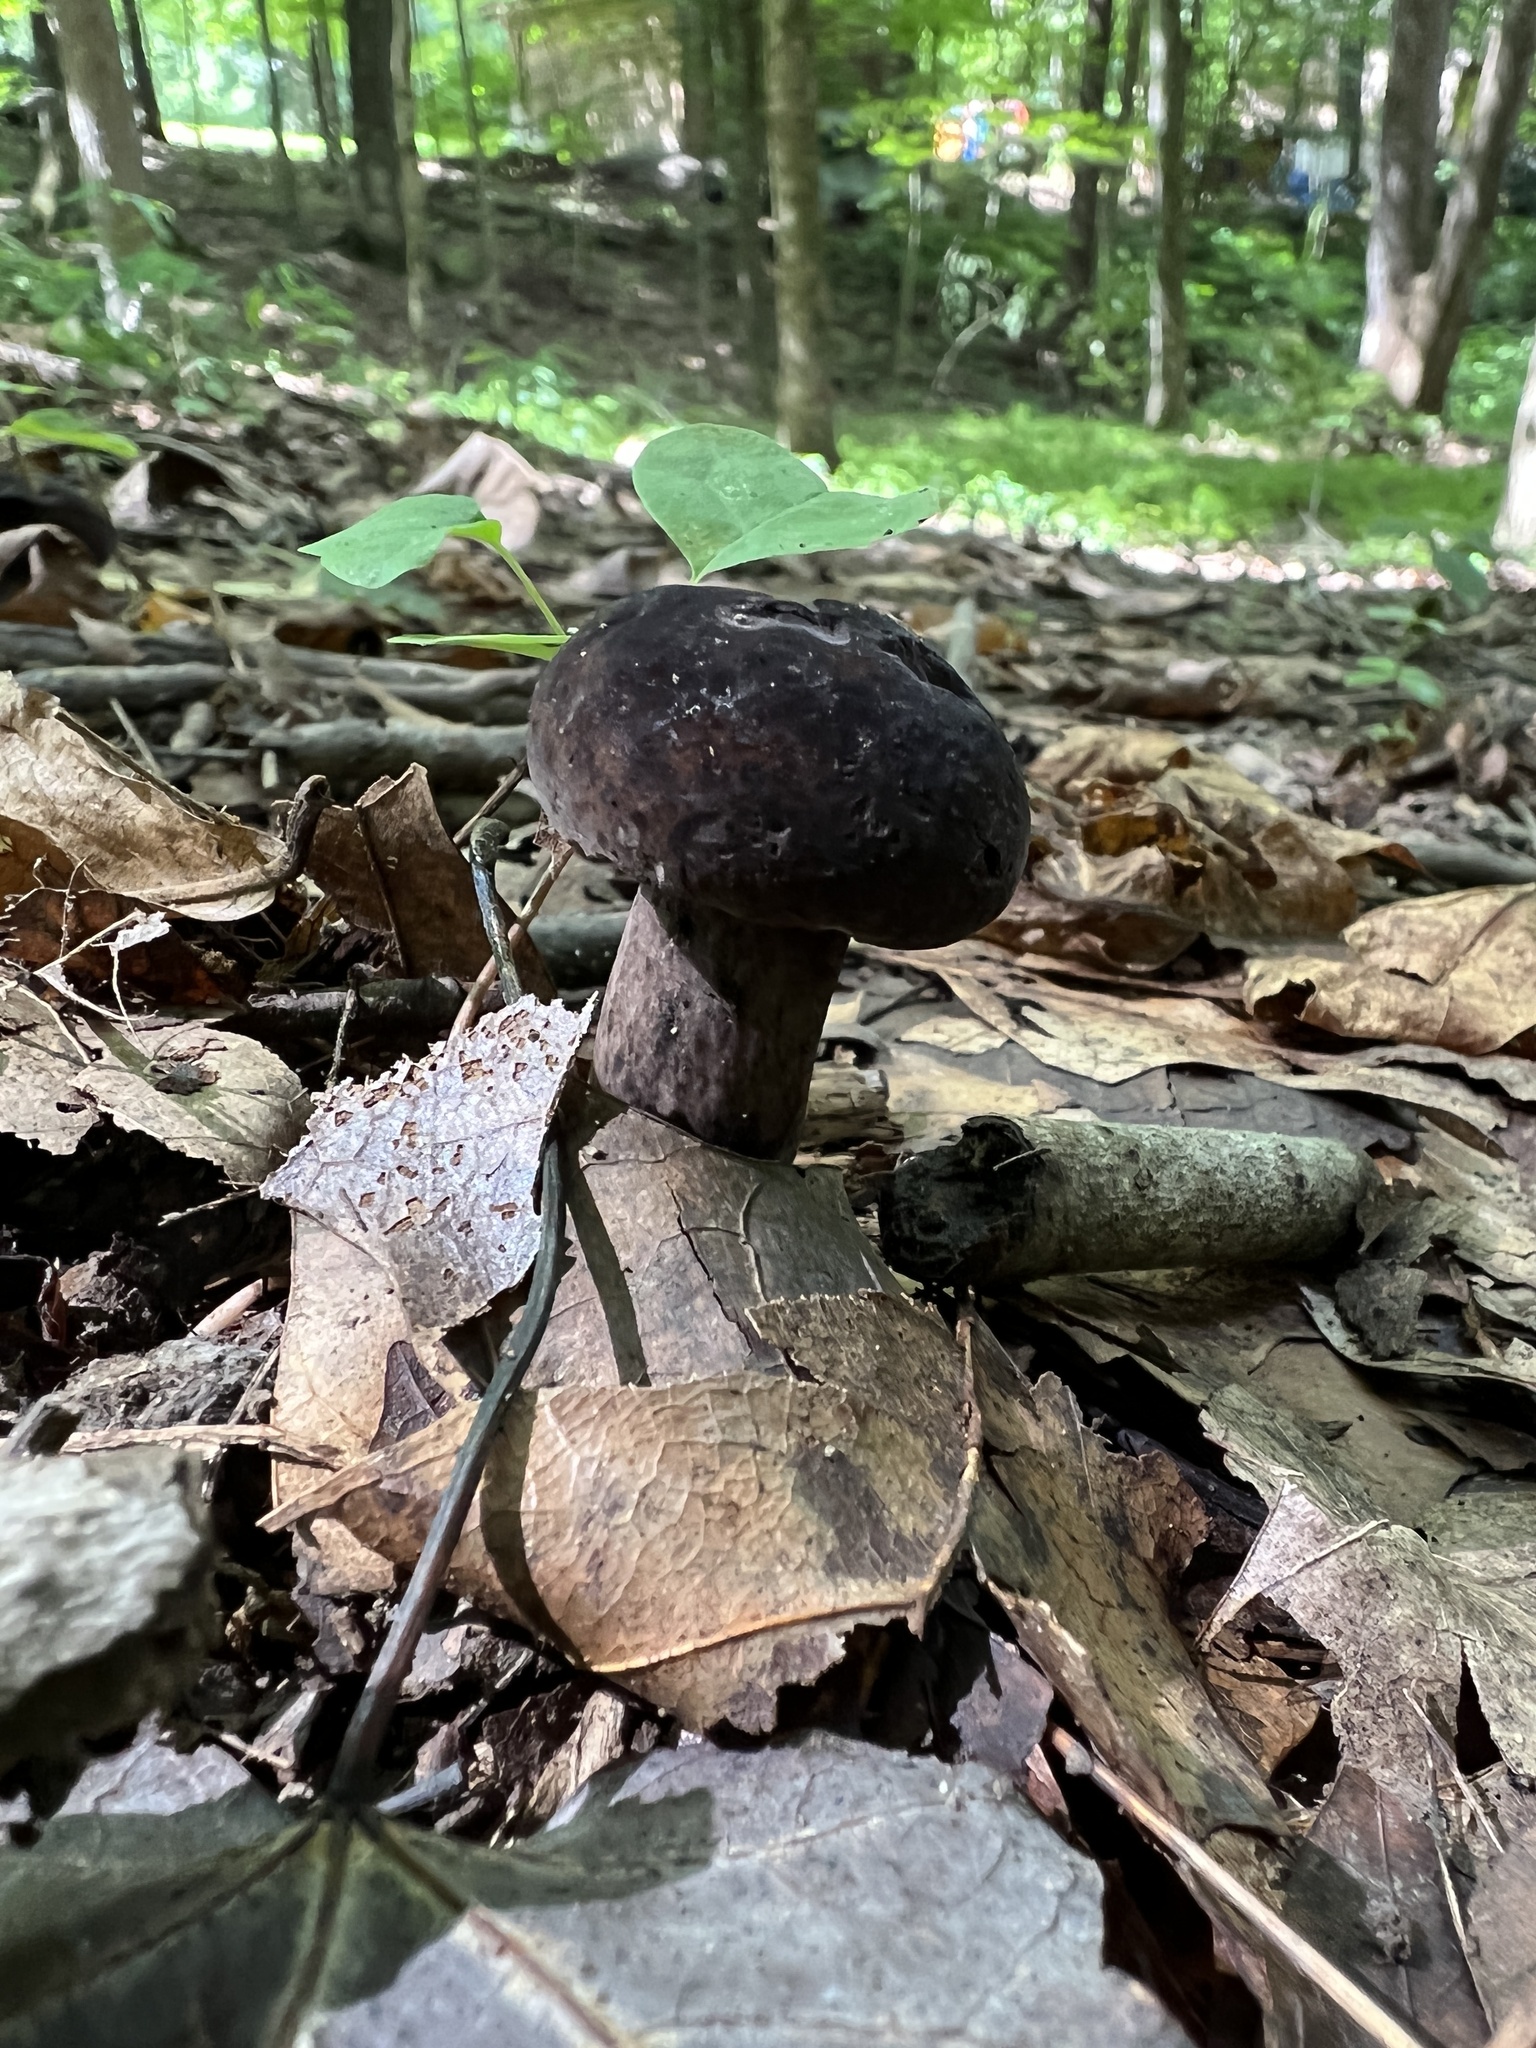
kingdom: Fungi
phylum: Basidiomycota
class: Agaricomycetes
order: Boletales
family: Boletaceae
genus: Tylopilus
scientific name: Tylopilus alboater
